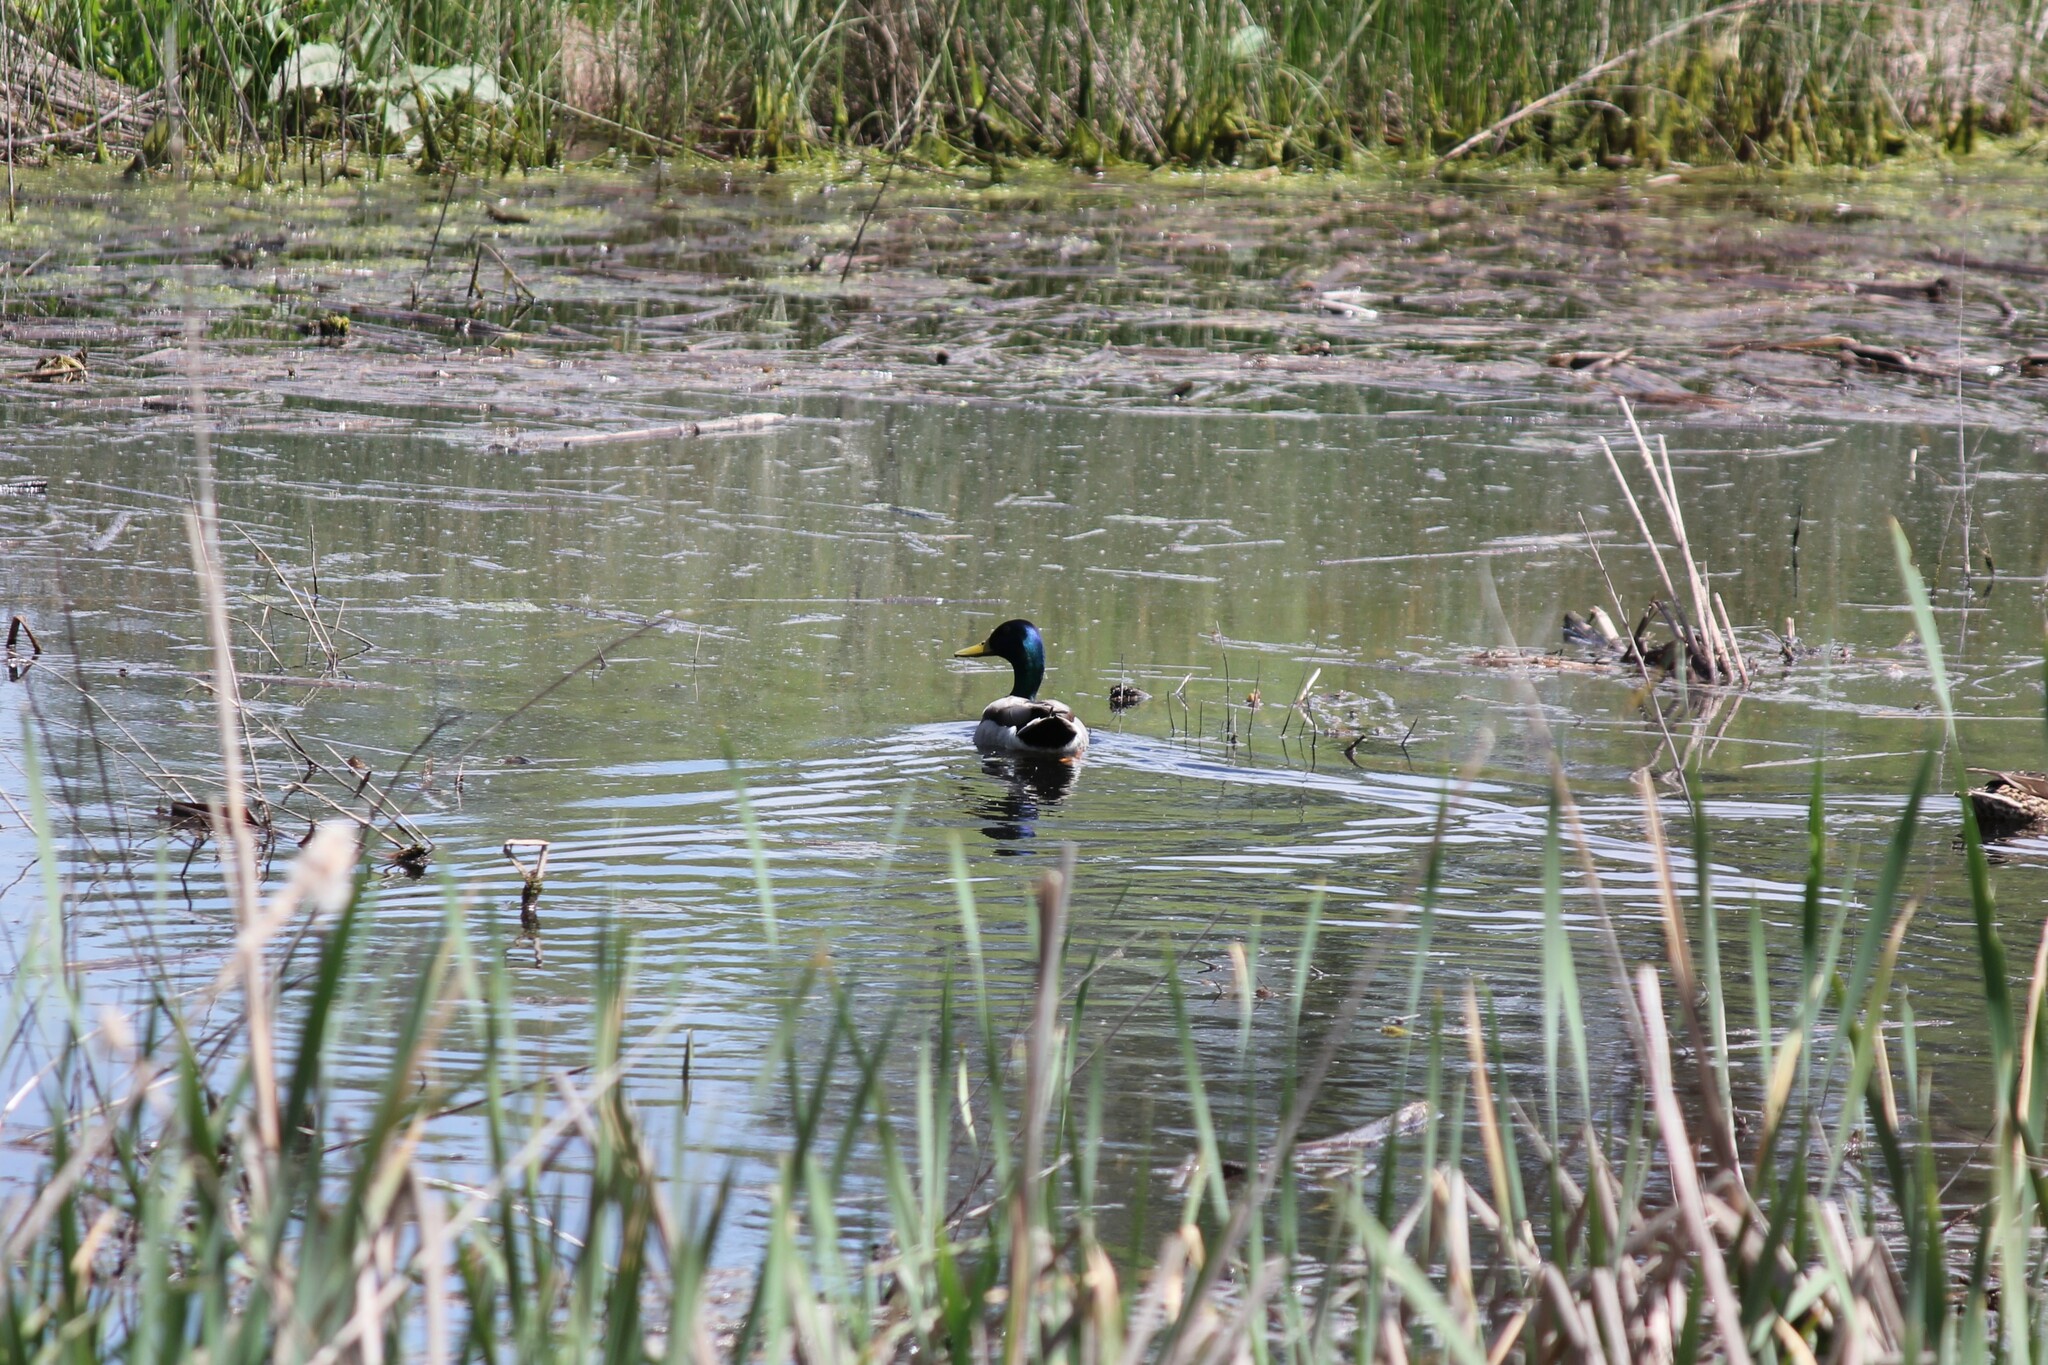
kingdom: Animalia
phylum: Chordata
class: Aves
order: Anseriformes
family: Anatidae
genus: Anas
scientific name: Anas platyrhynchos
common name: Mallard
